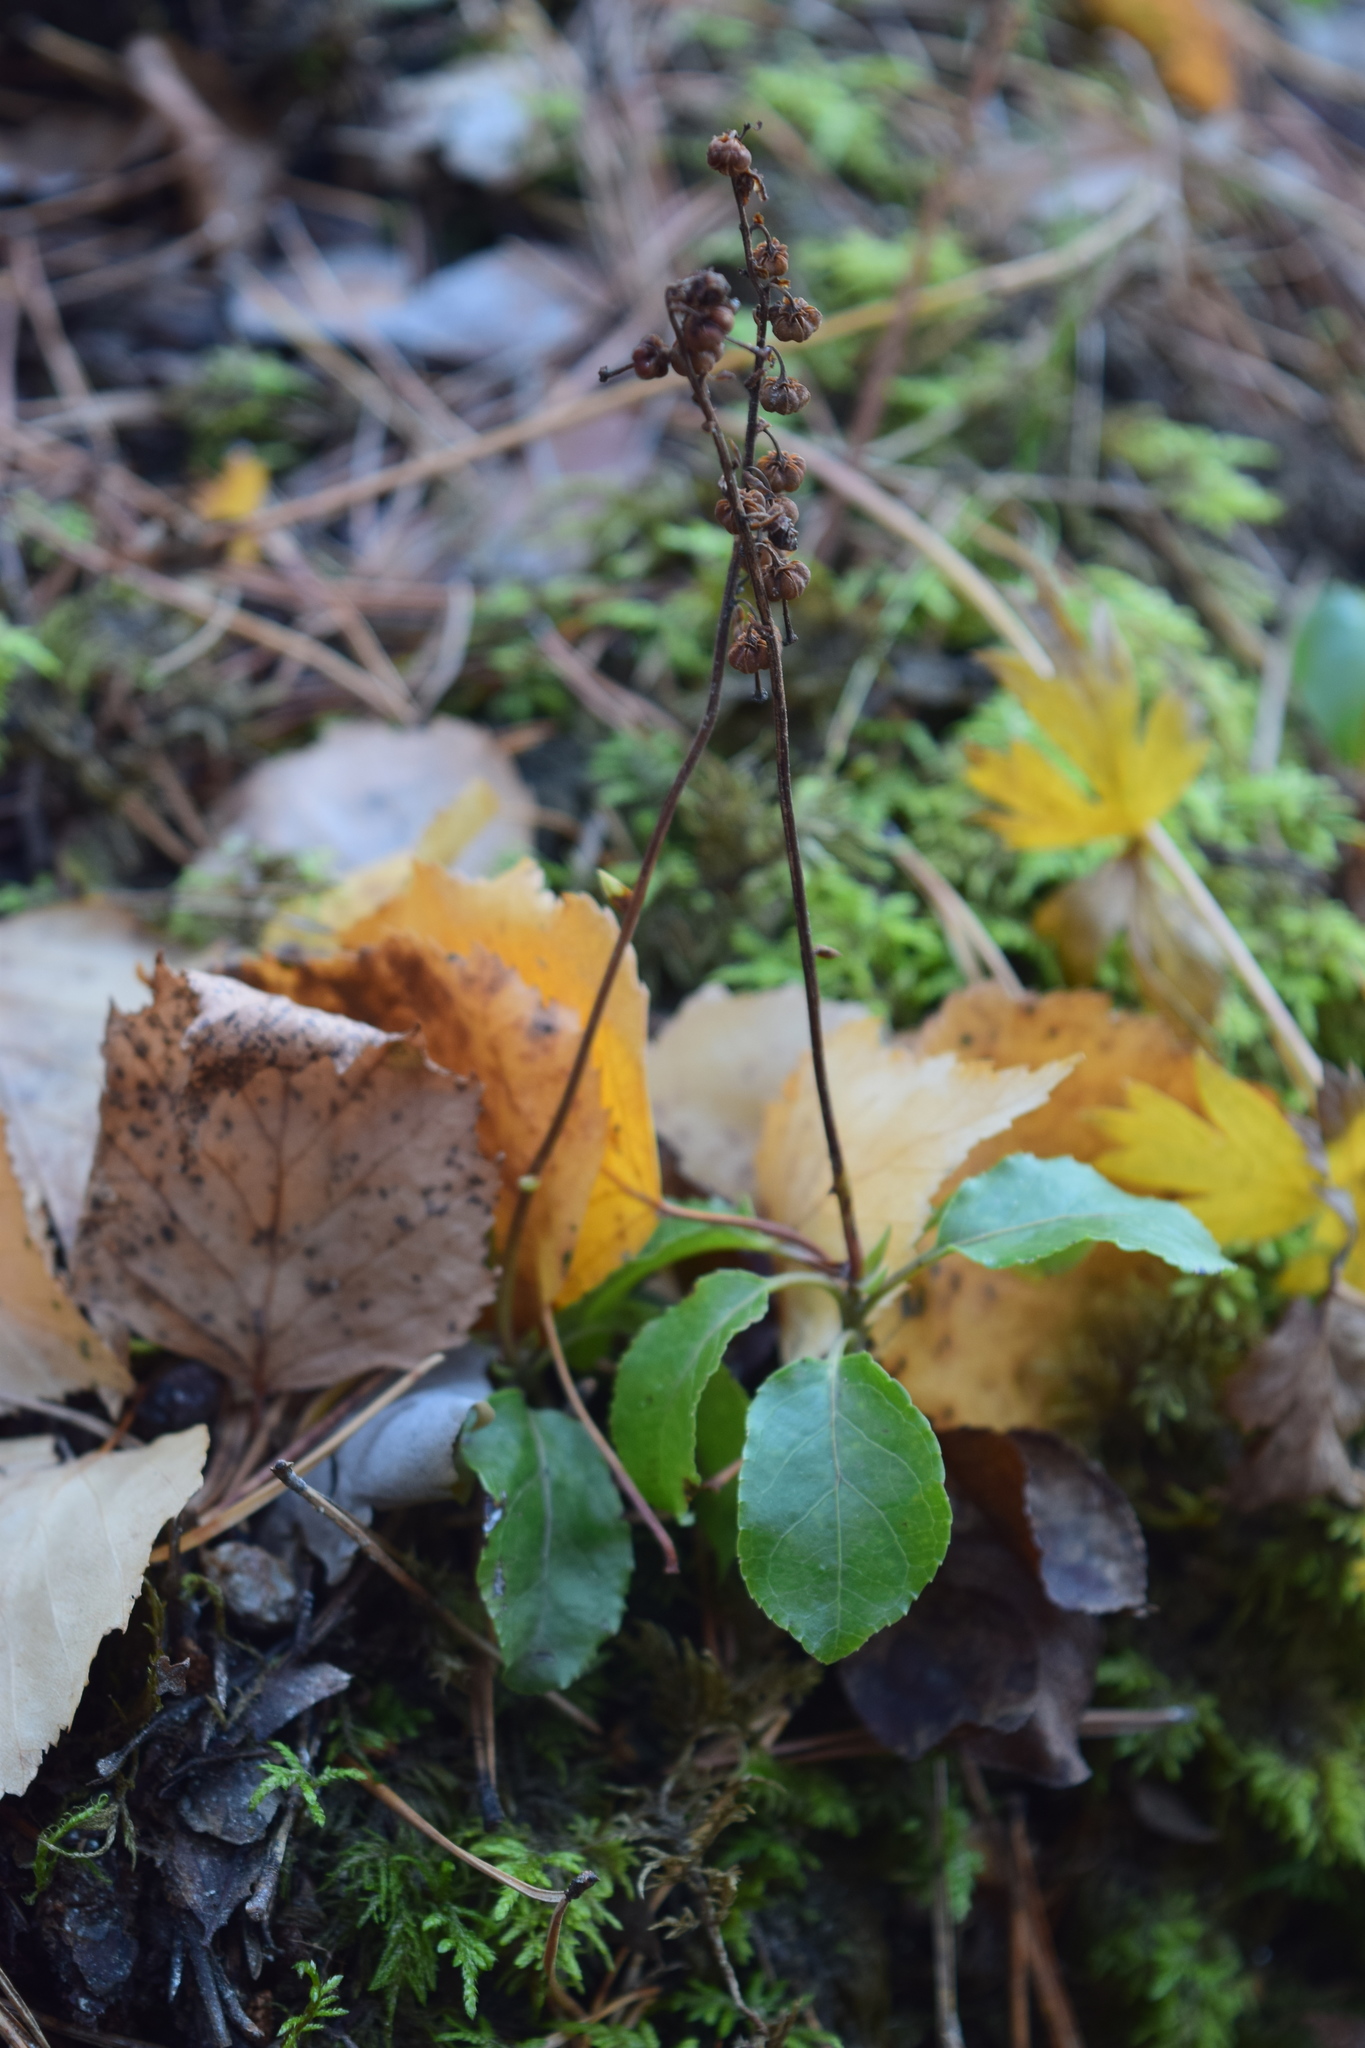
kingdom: Plantae
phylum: Tracheophyta
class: Magnoliopsida
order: Ericales
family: Ericaceae
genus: Orthilia
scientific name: Orthilia secunda
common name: One-sided orthilia
